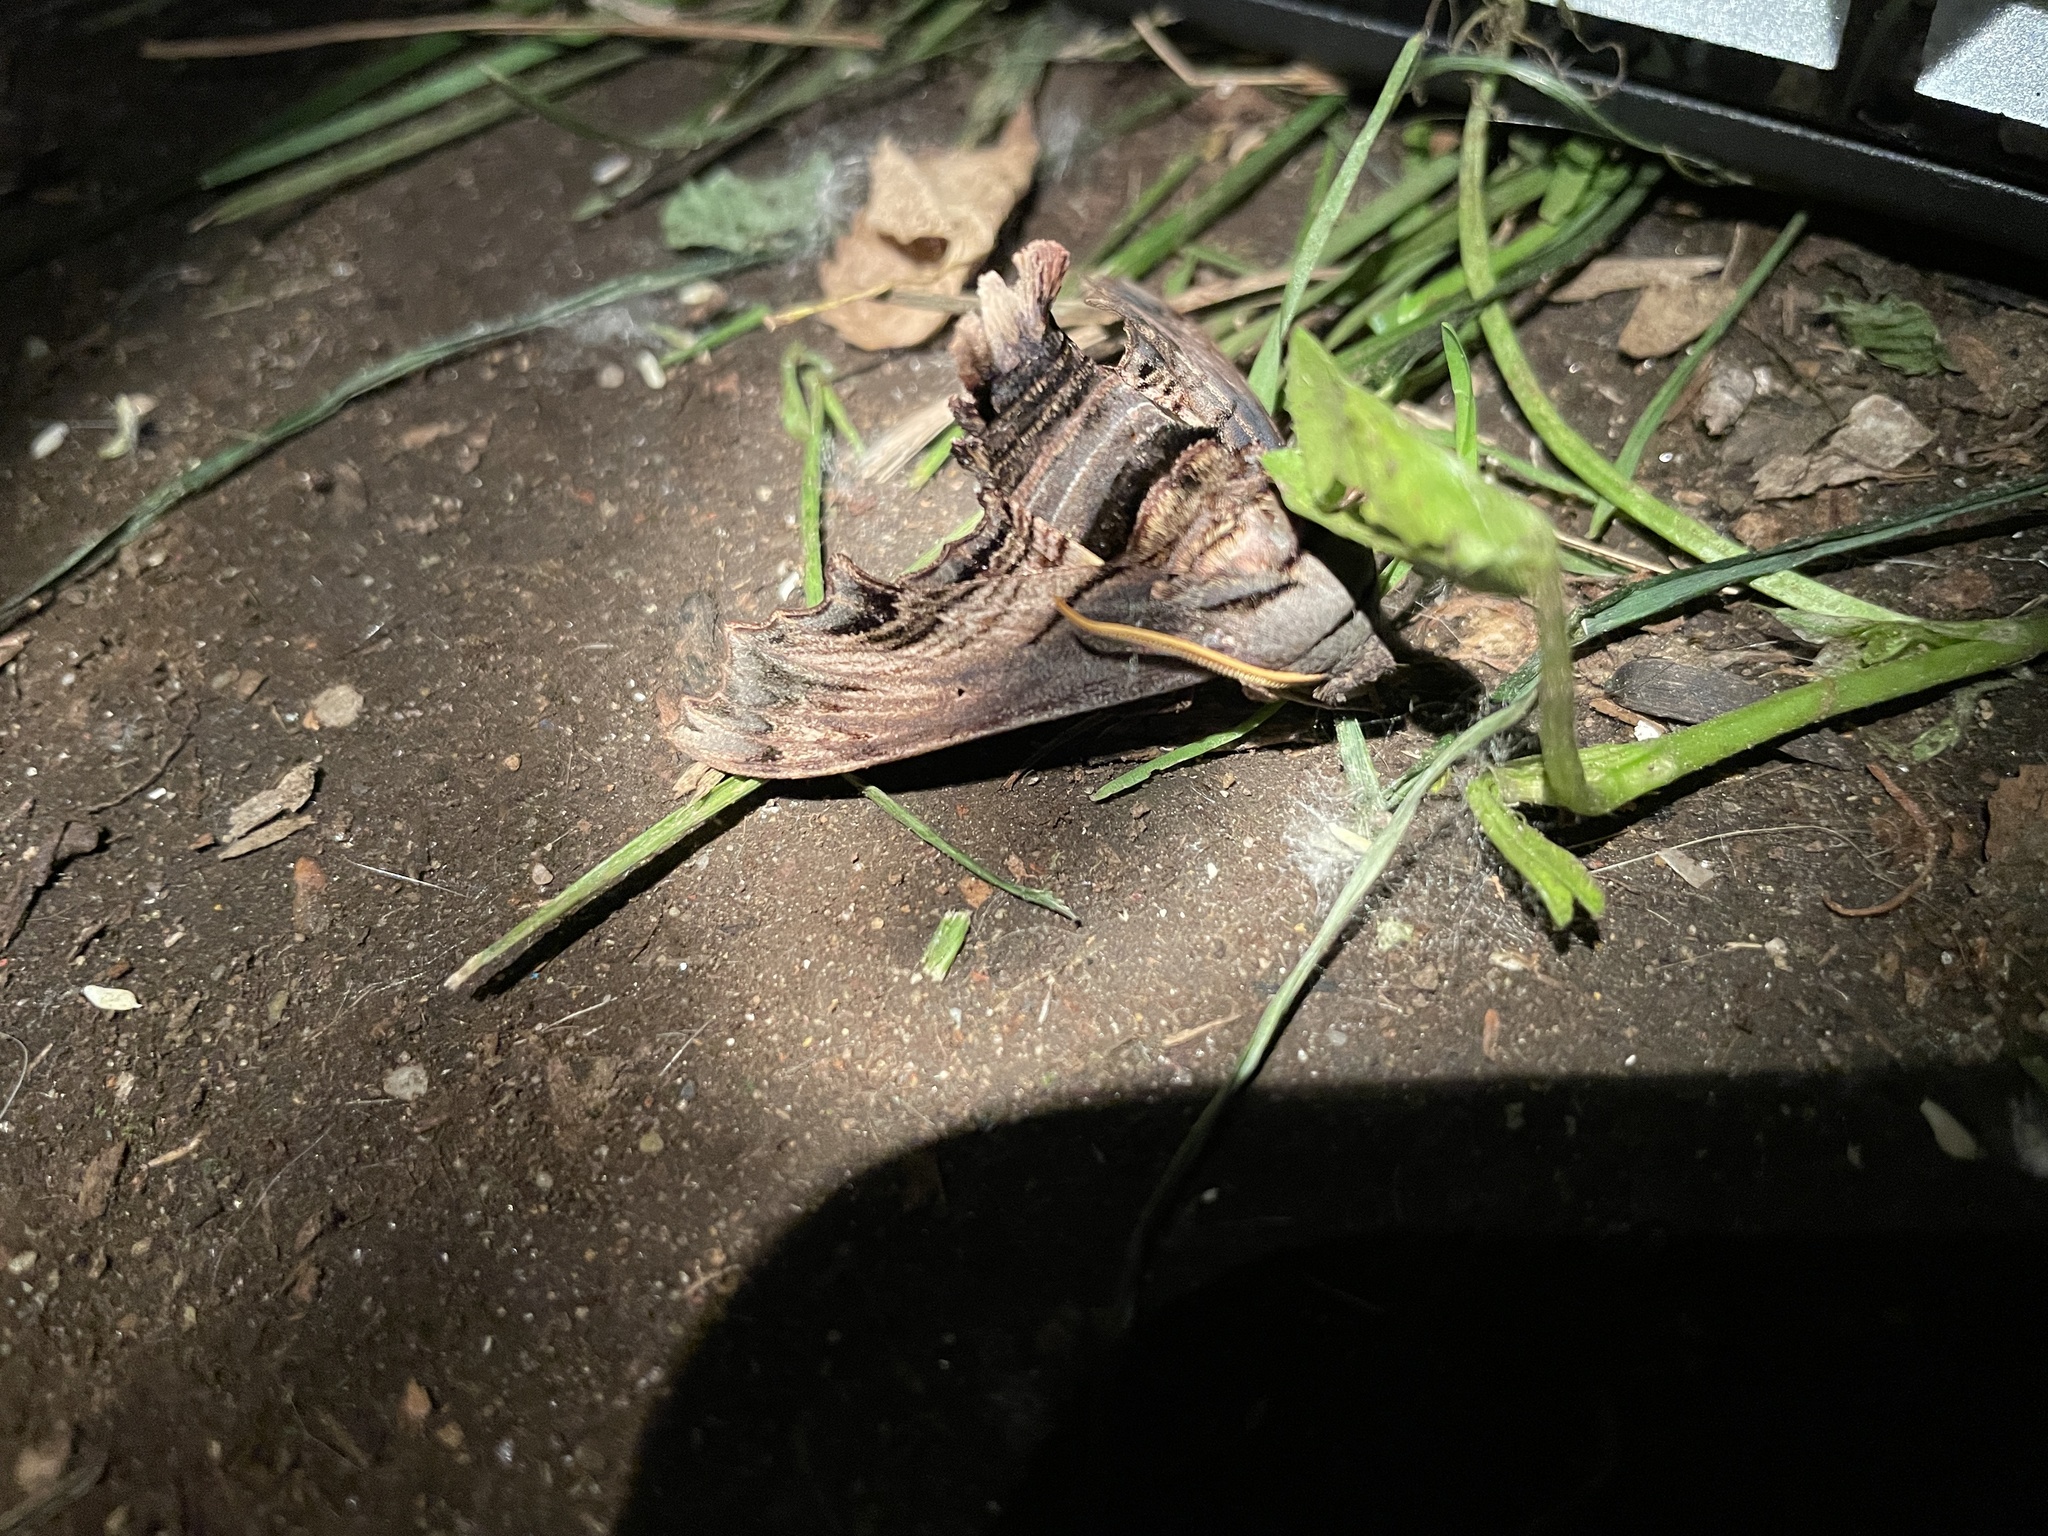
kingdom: Animalia
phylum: Arthropoda
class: Insecta
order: Lepidoptera
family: Sphingidae
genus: Sphecodina
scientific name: Sphecodina abbottii
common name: Abbott's sphinx
